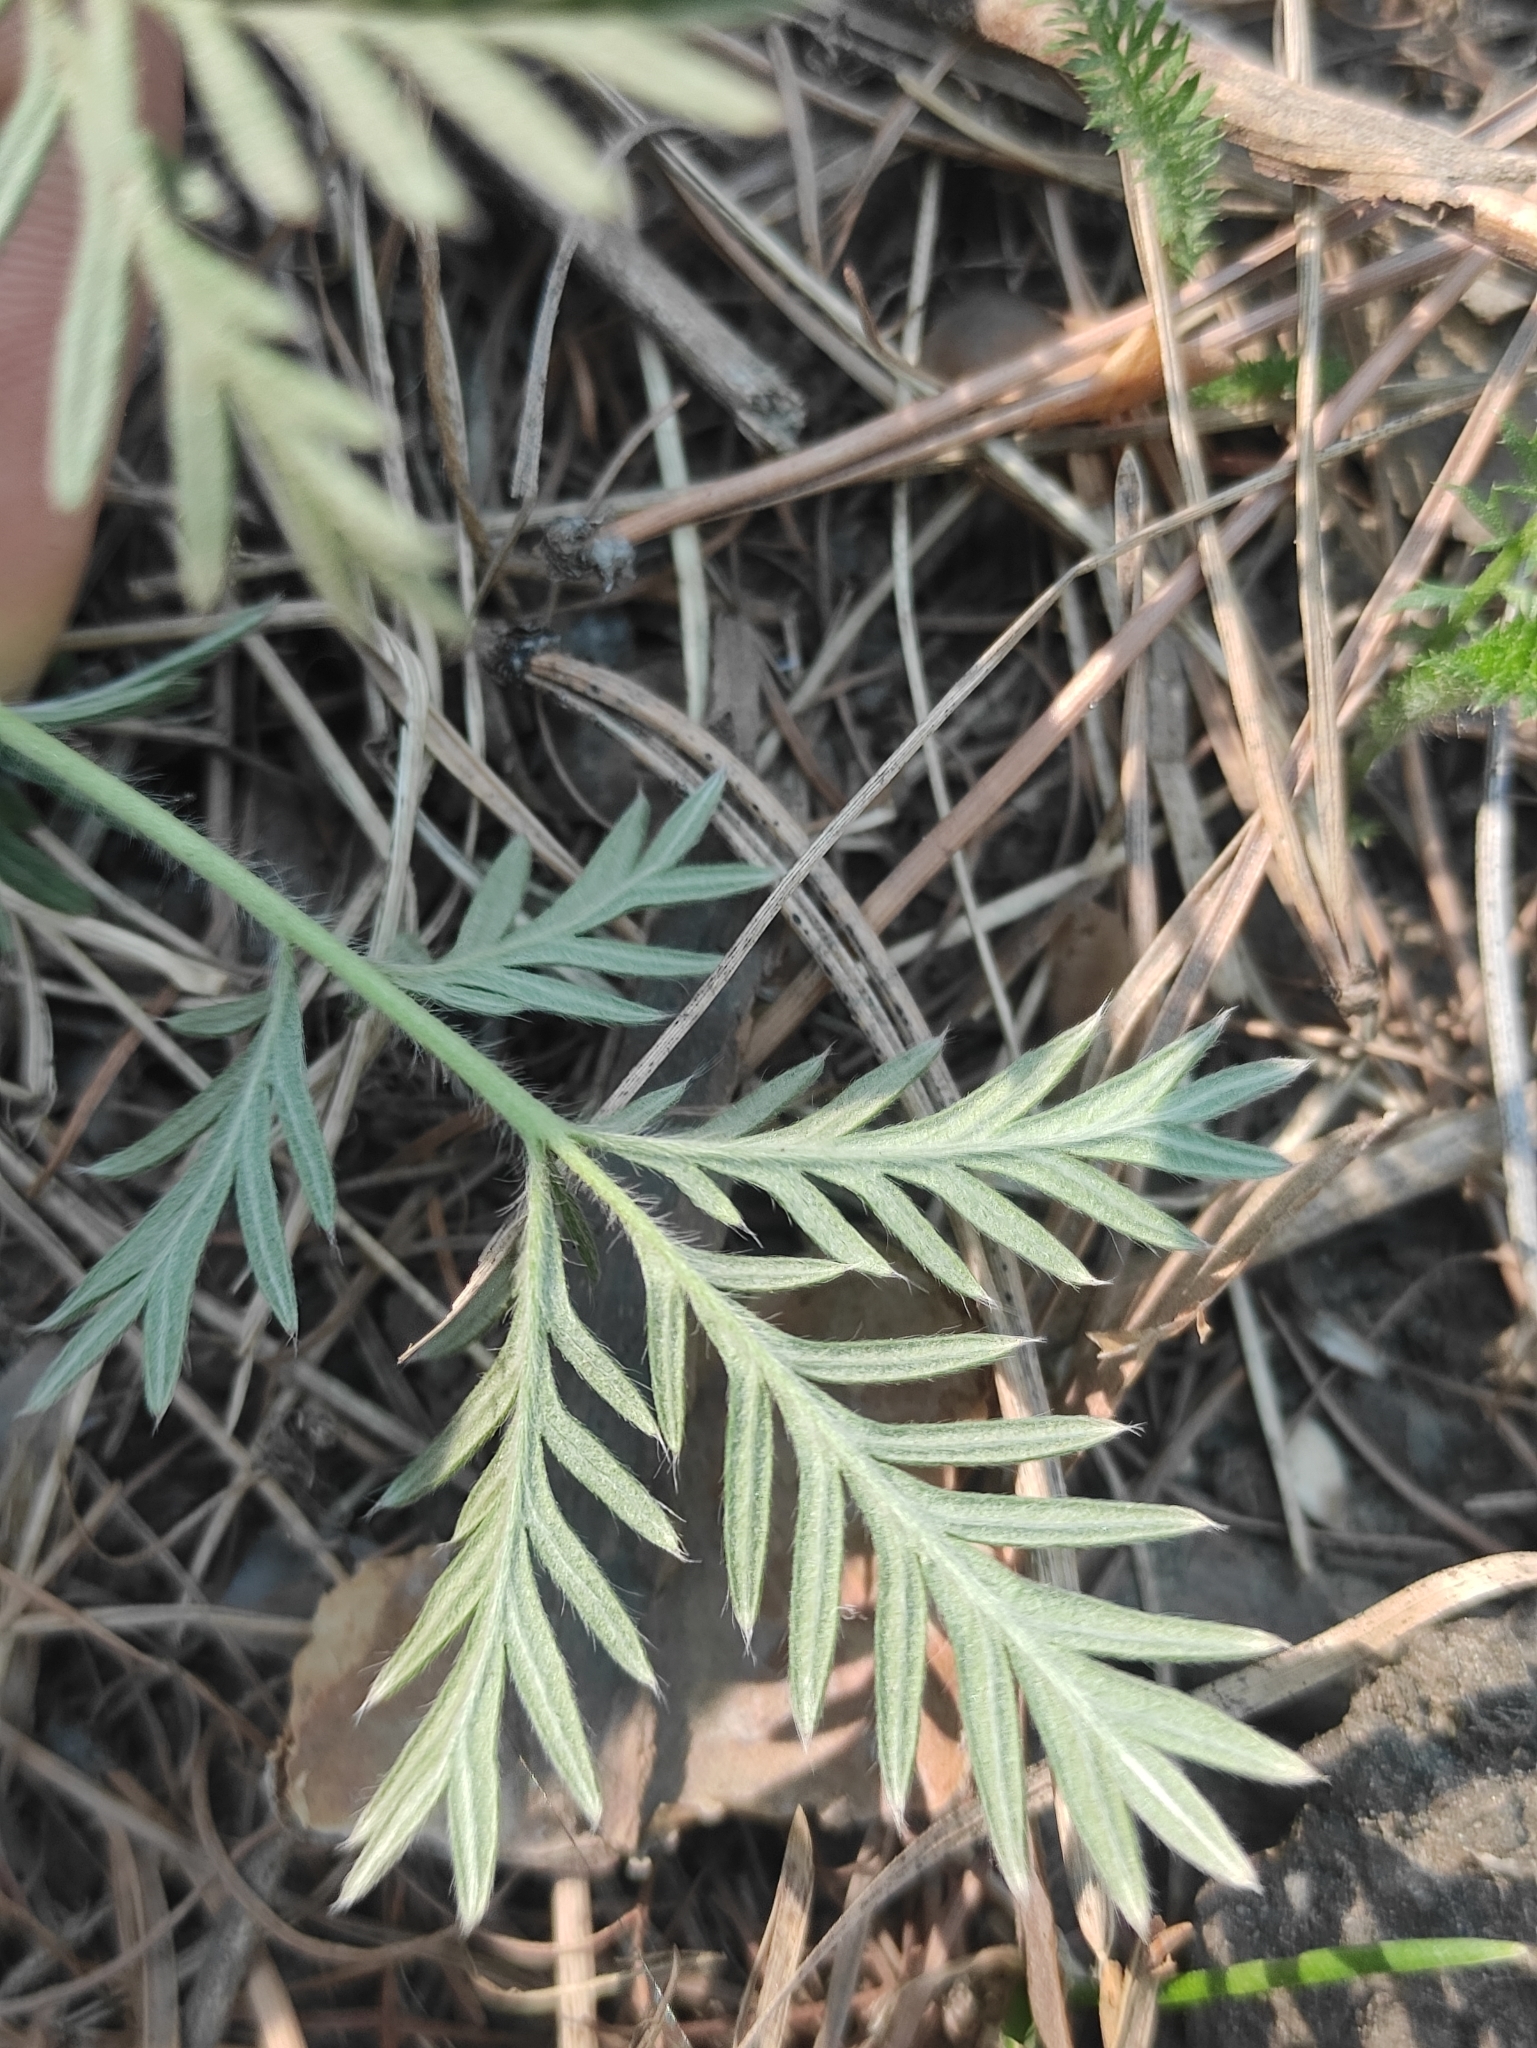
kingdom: Plantae
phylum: Tracheophyta
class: Magnoliopsida
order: Rosales
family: Rosaceae
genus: Potentilla
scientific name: Potentilla tergemina
